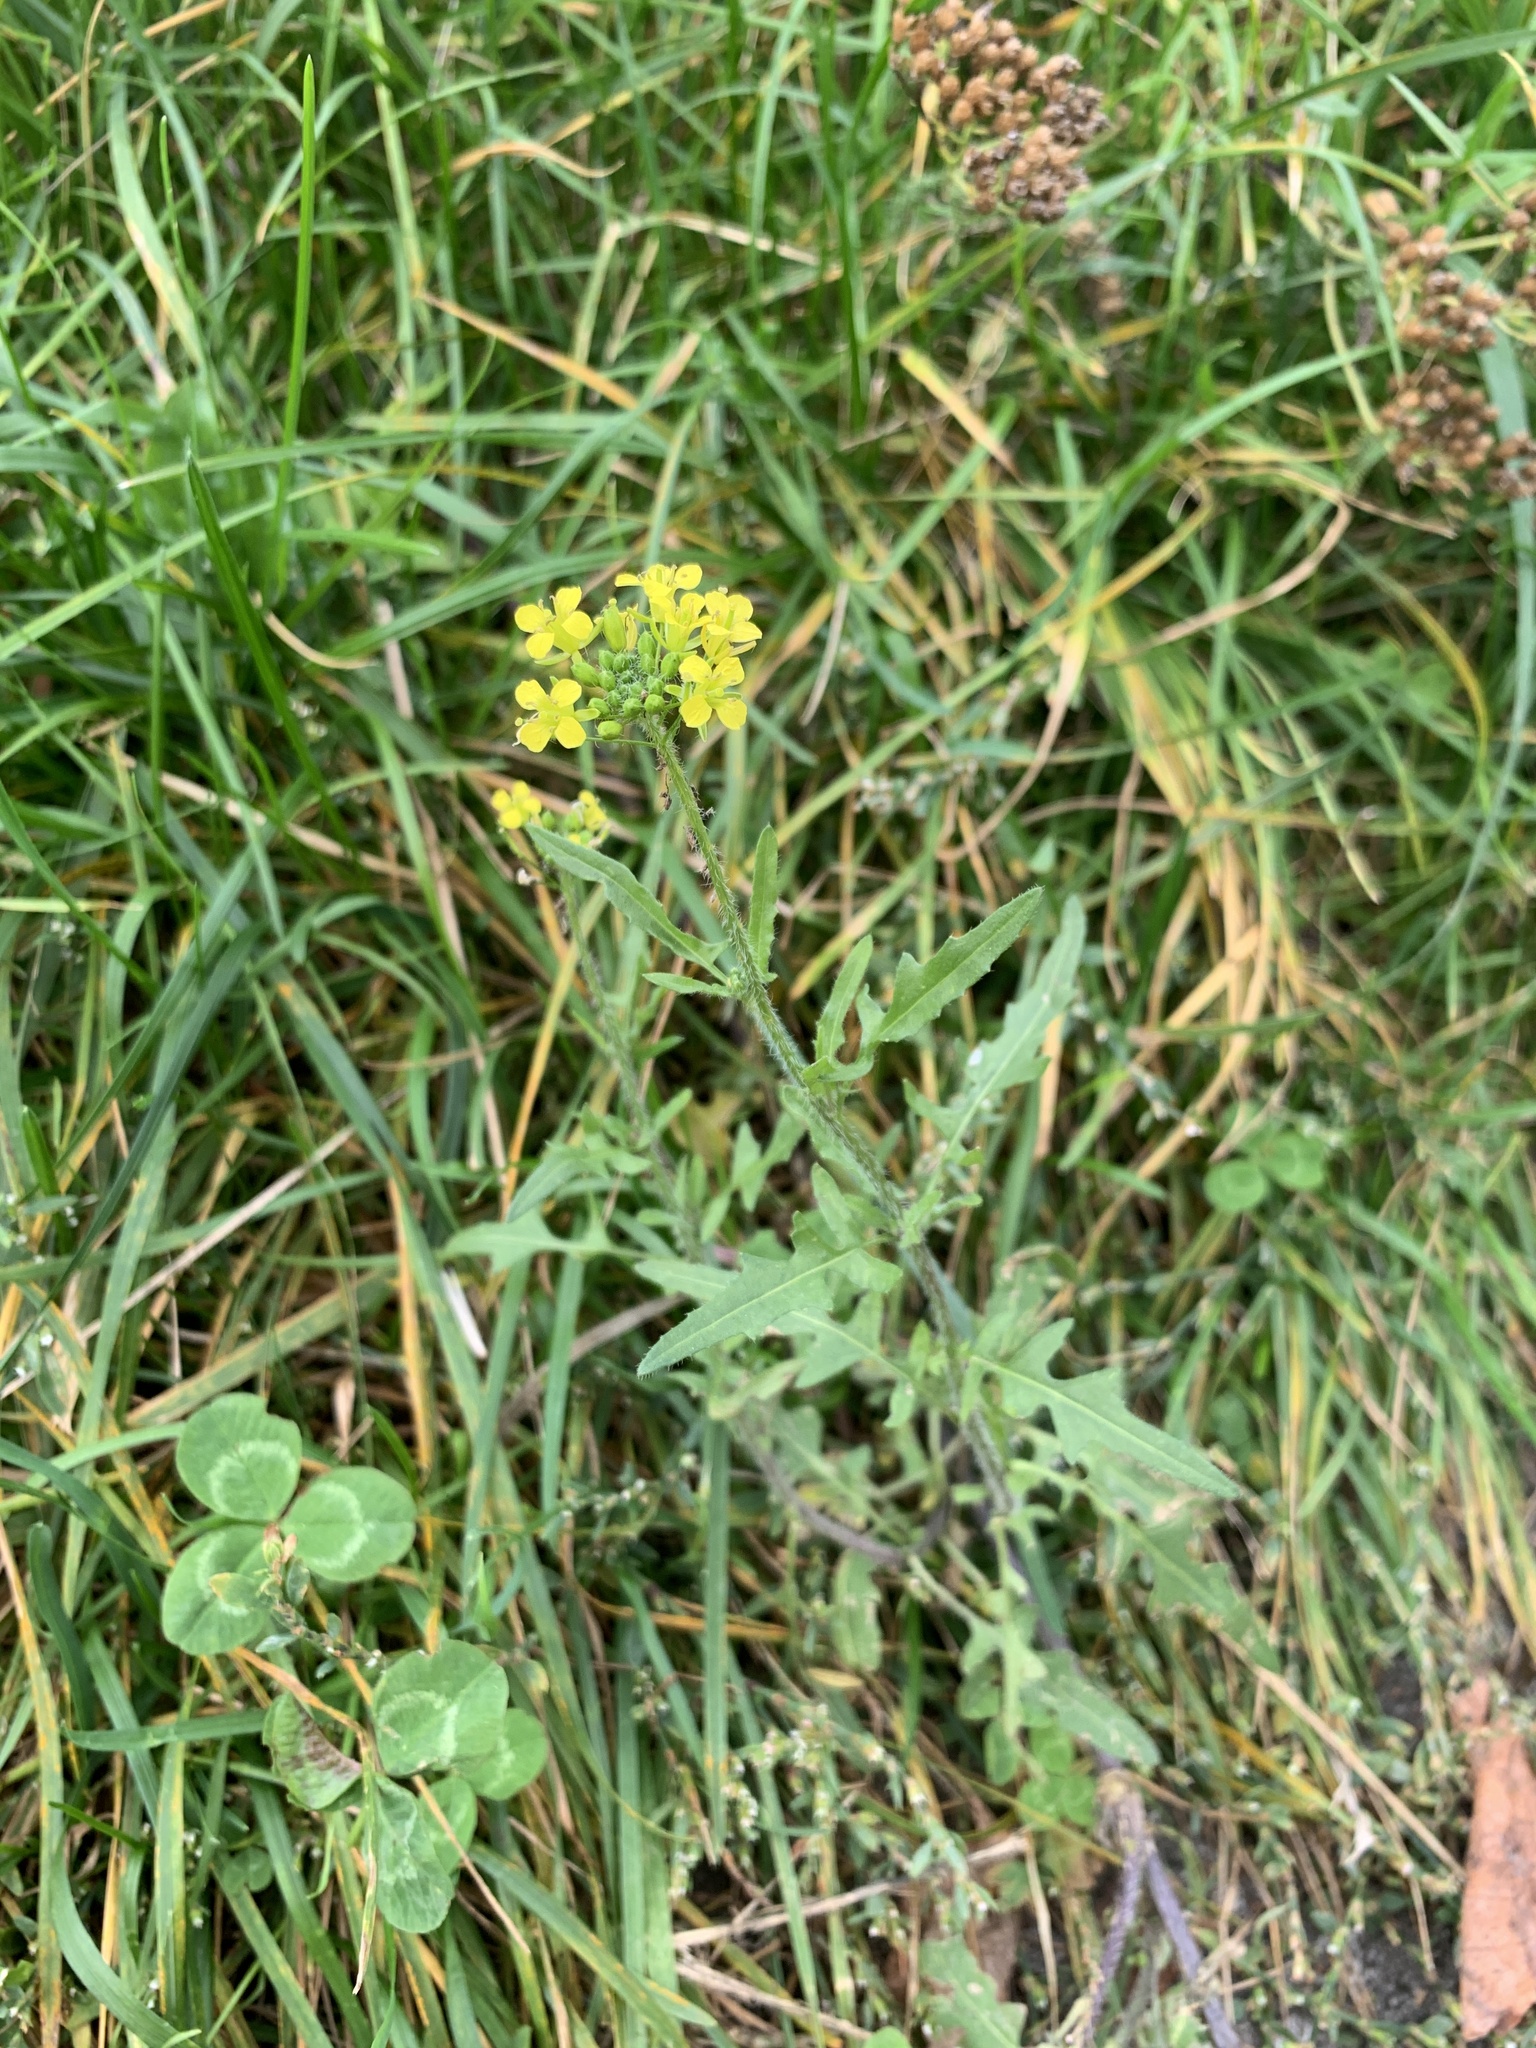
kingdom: Plantae
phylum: Tracheophyta
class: Magnoliopsida
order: Brassicales
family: Brassicaceae
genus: Sisymbrium
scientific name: Sisymbrium loeselii
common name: False london-rocket
